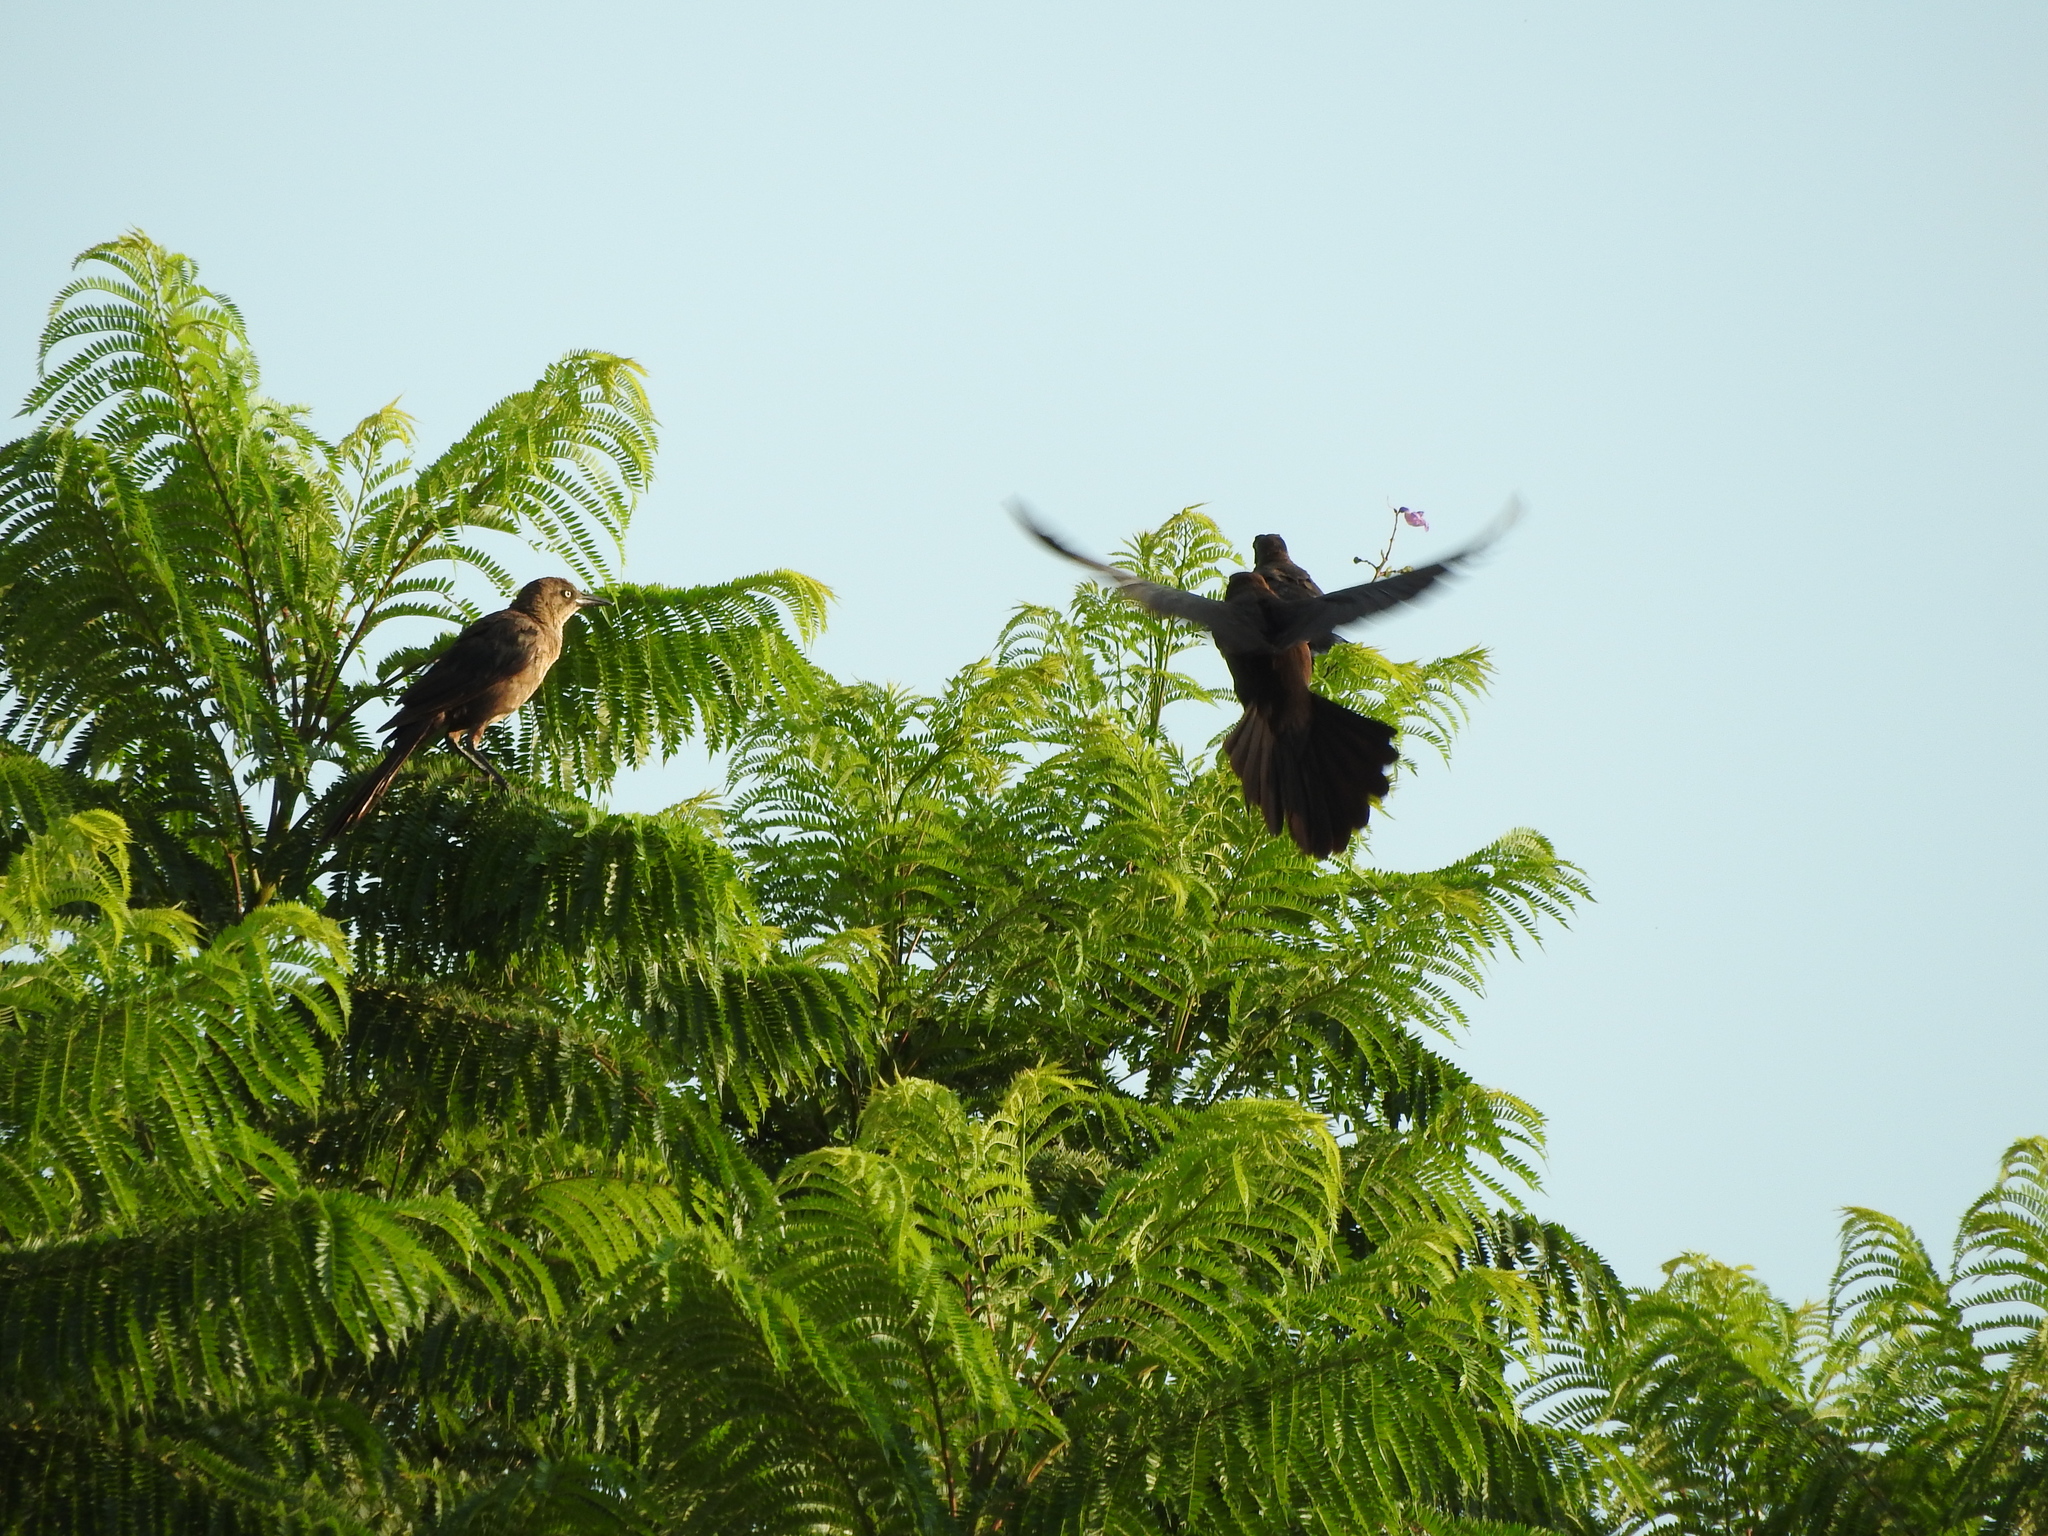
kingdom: Animalia
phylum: Chordata
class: Aves
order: Passeriformes
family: Icteridae
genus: Quiscalus
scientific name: Quiscalus mexicanus
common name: Great-tailed grackle
